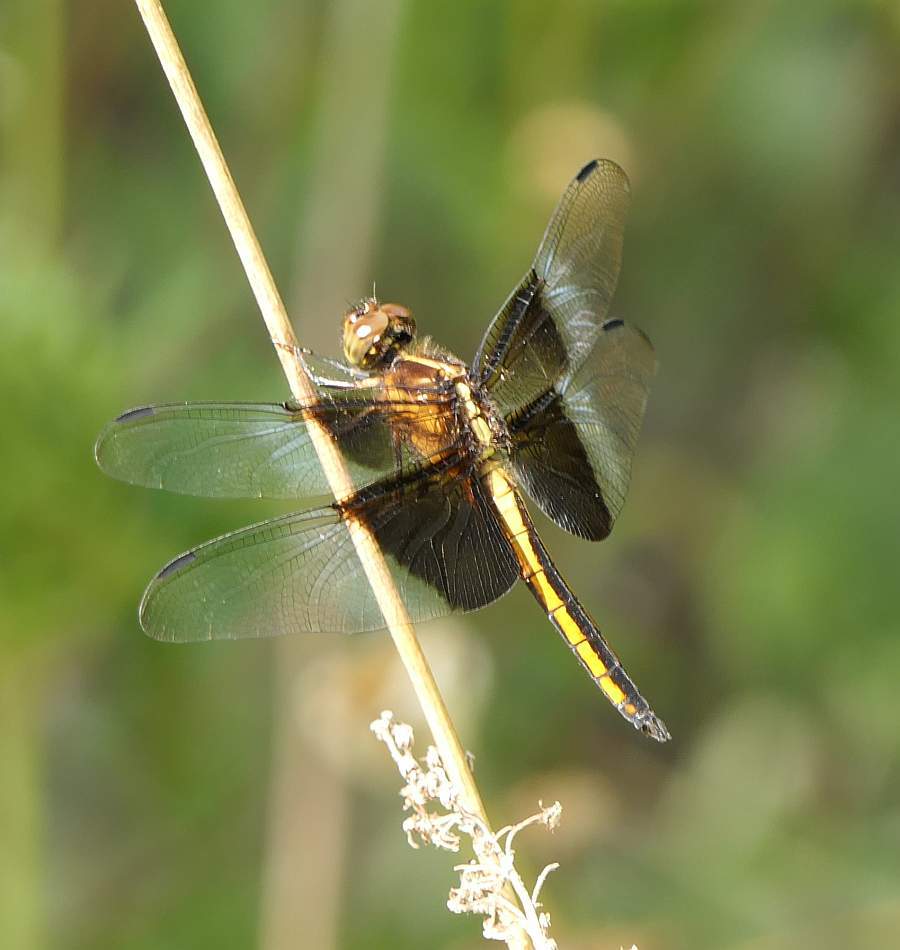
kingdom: Animalia
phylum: Arthropoda
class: Insecta
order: Odonata
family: Libellulidae
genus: Libellula
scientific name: Libellula luctuosa
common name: Widow skimmer
